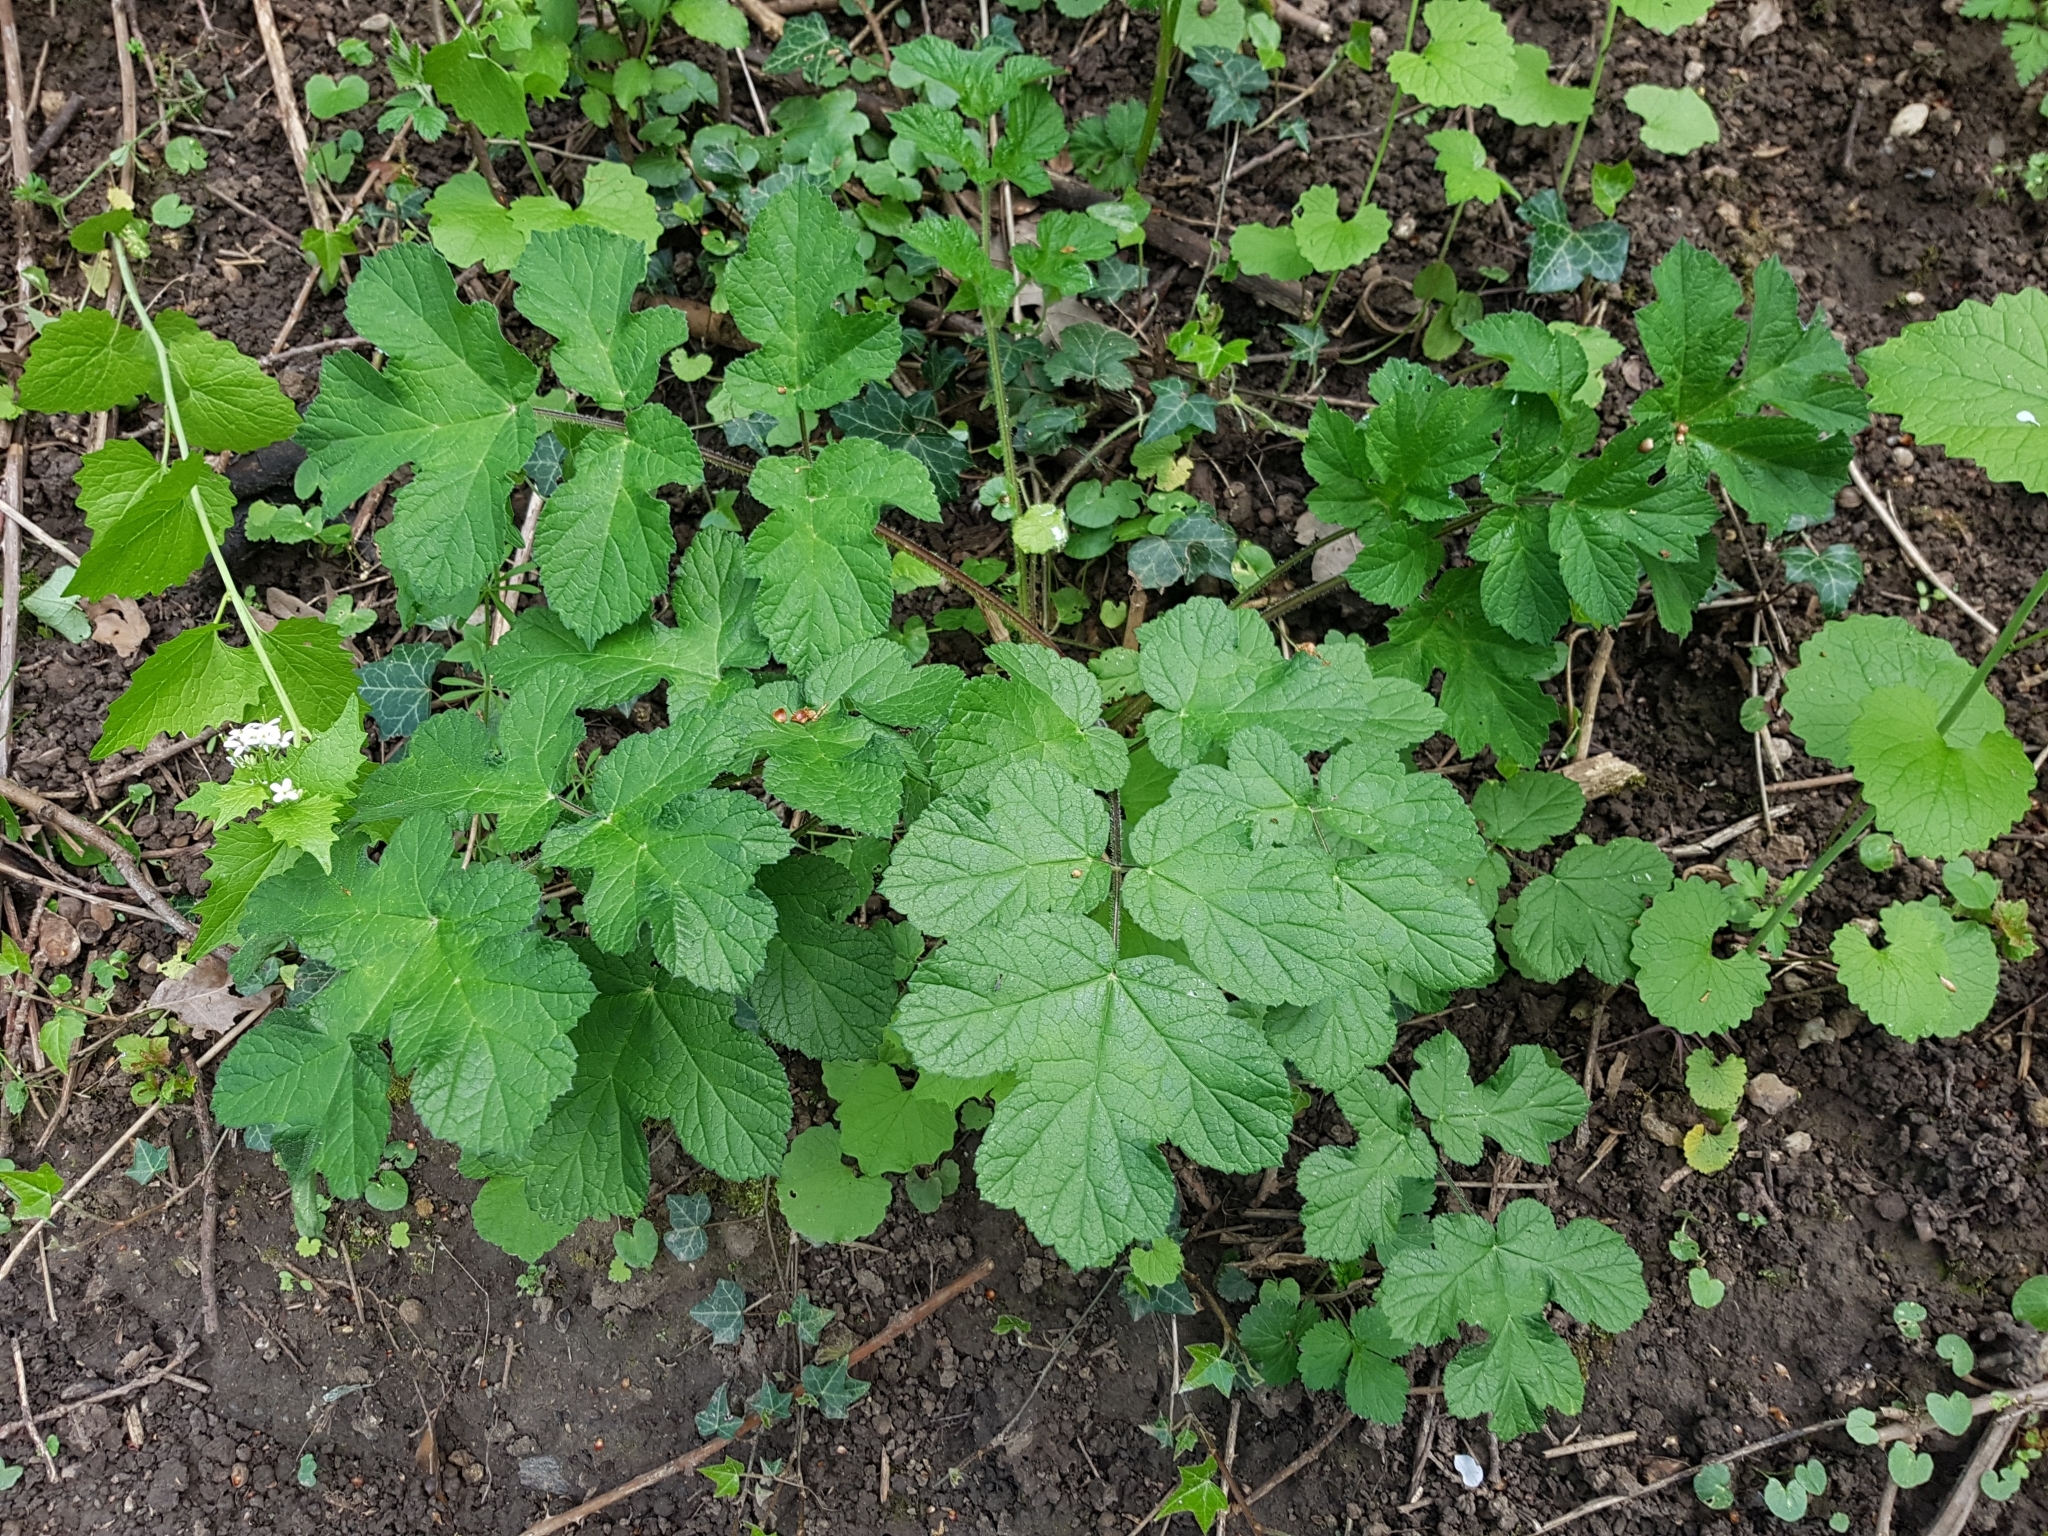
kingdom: Plantae
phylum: Tracheophyta
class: Magnoliopsida
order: Apiales
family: Apiaceae
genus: Heracleum
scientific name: Heracleum sphondylium
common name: Hogweed
